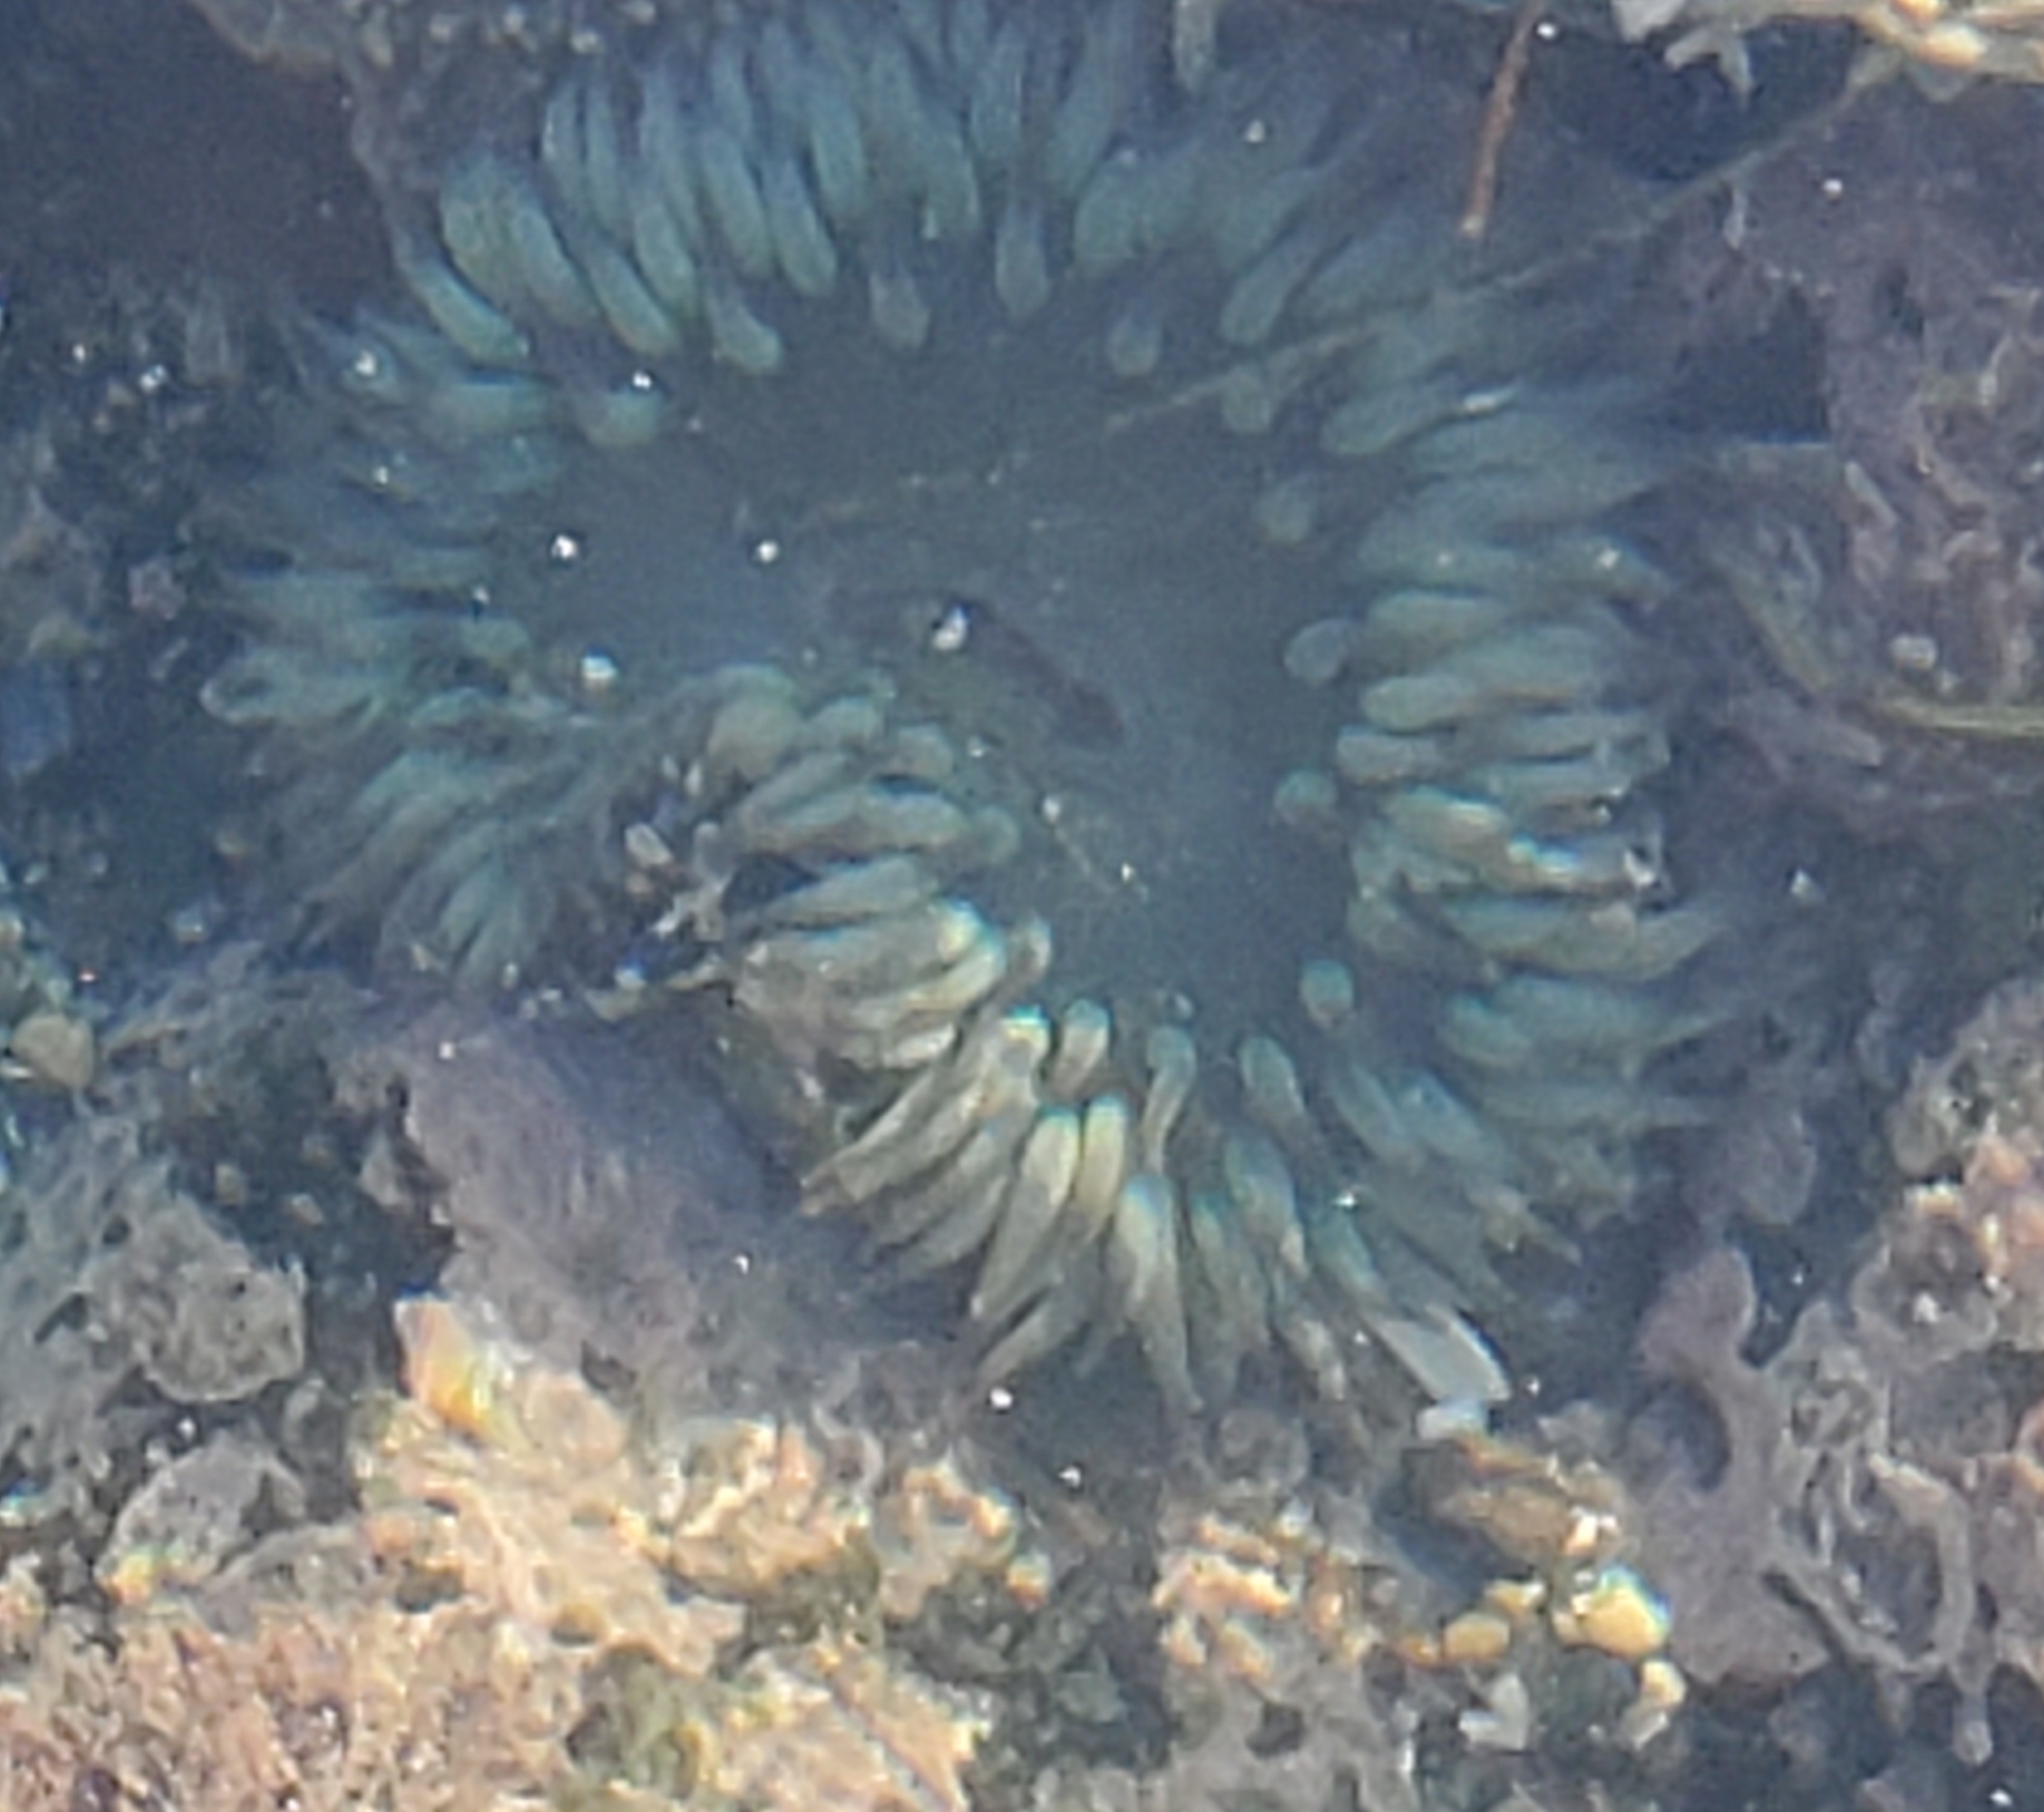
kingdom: Animalia
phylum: Cnidaria
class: Anthozoa
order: Actiniaria
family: Actiniidae
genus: Anthopleura
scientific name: Anthopleura sola
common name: Sun anemone
